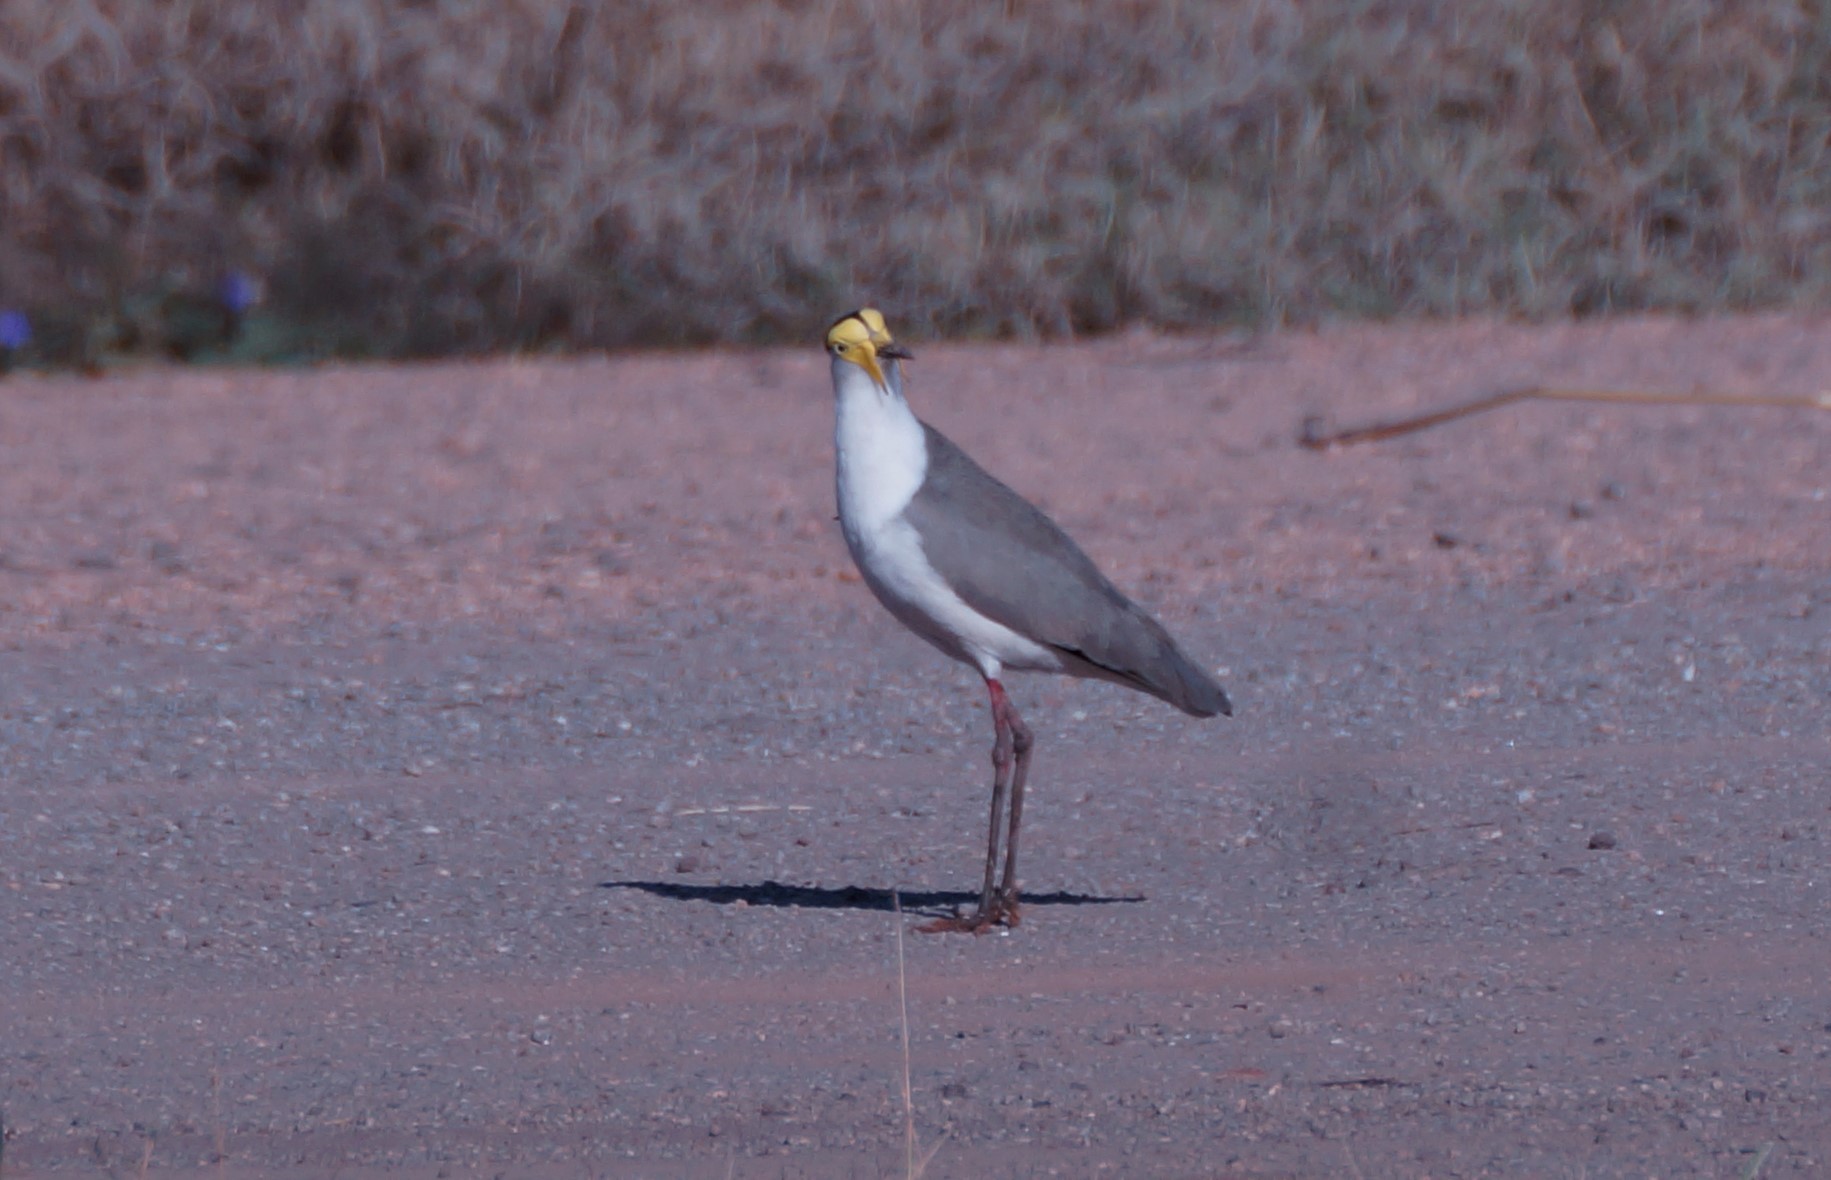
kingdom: Animalia
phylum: Chordata
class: Aves
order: Charadriiformes
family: Charadriidae
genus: Vanellus
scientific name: Vanellus miles
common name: Masked lapwing
